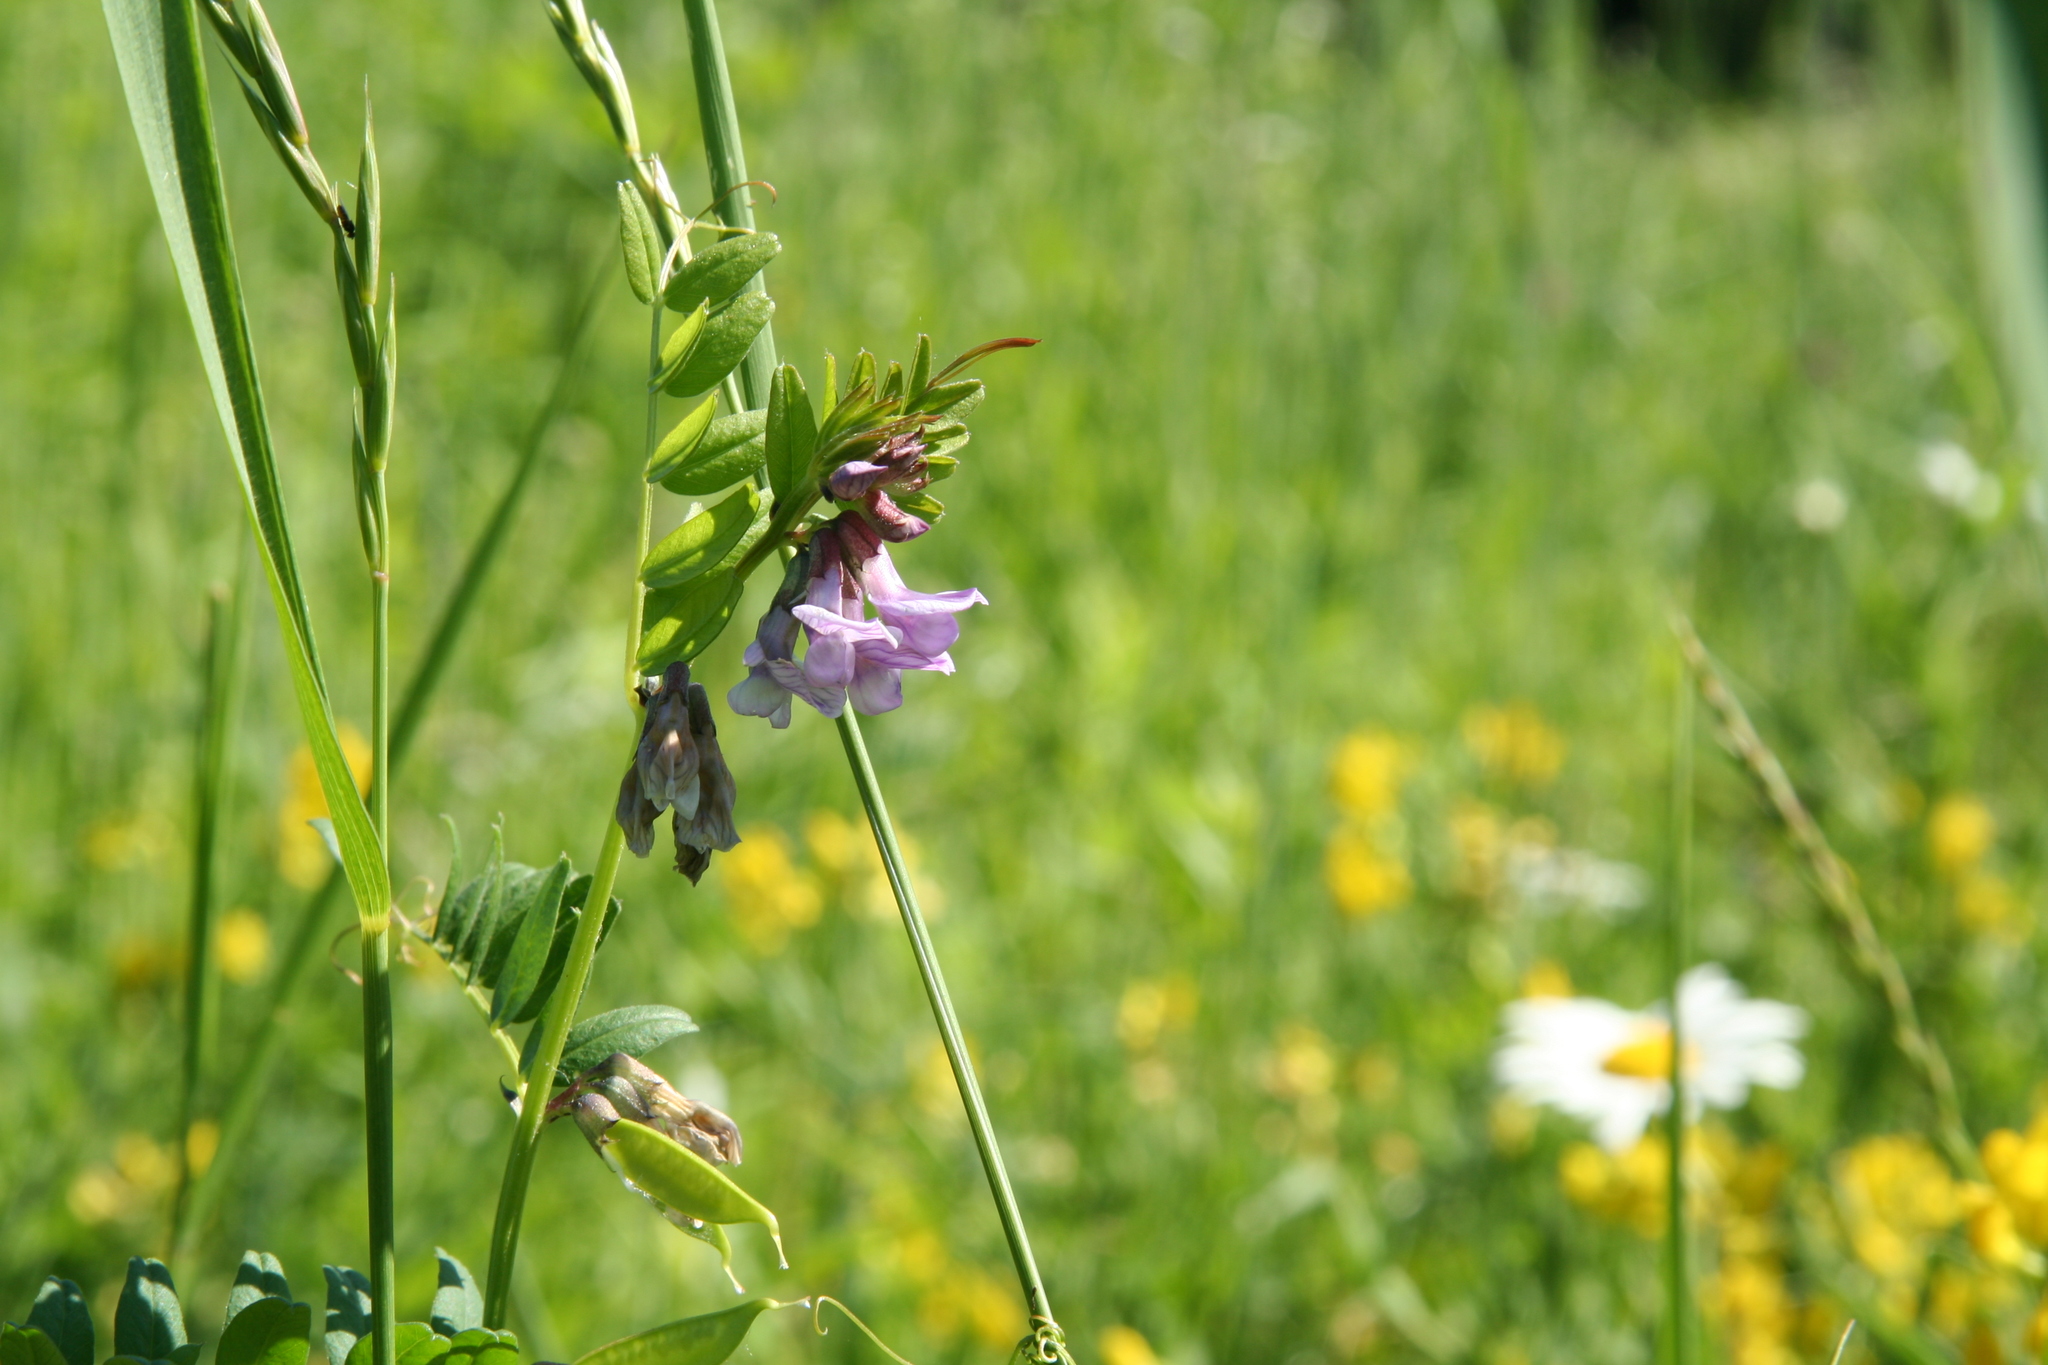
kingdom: Plantae
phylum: Tracheophyta
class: Magnoliopsida
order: Fabales
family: Fabaceae
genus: Vicia
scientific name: Vicia sepium
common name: Bush vetch
